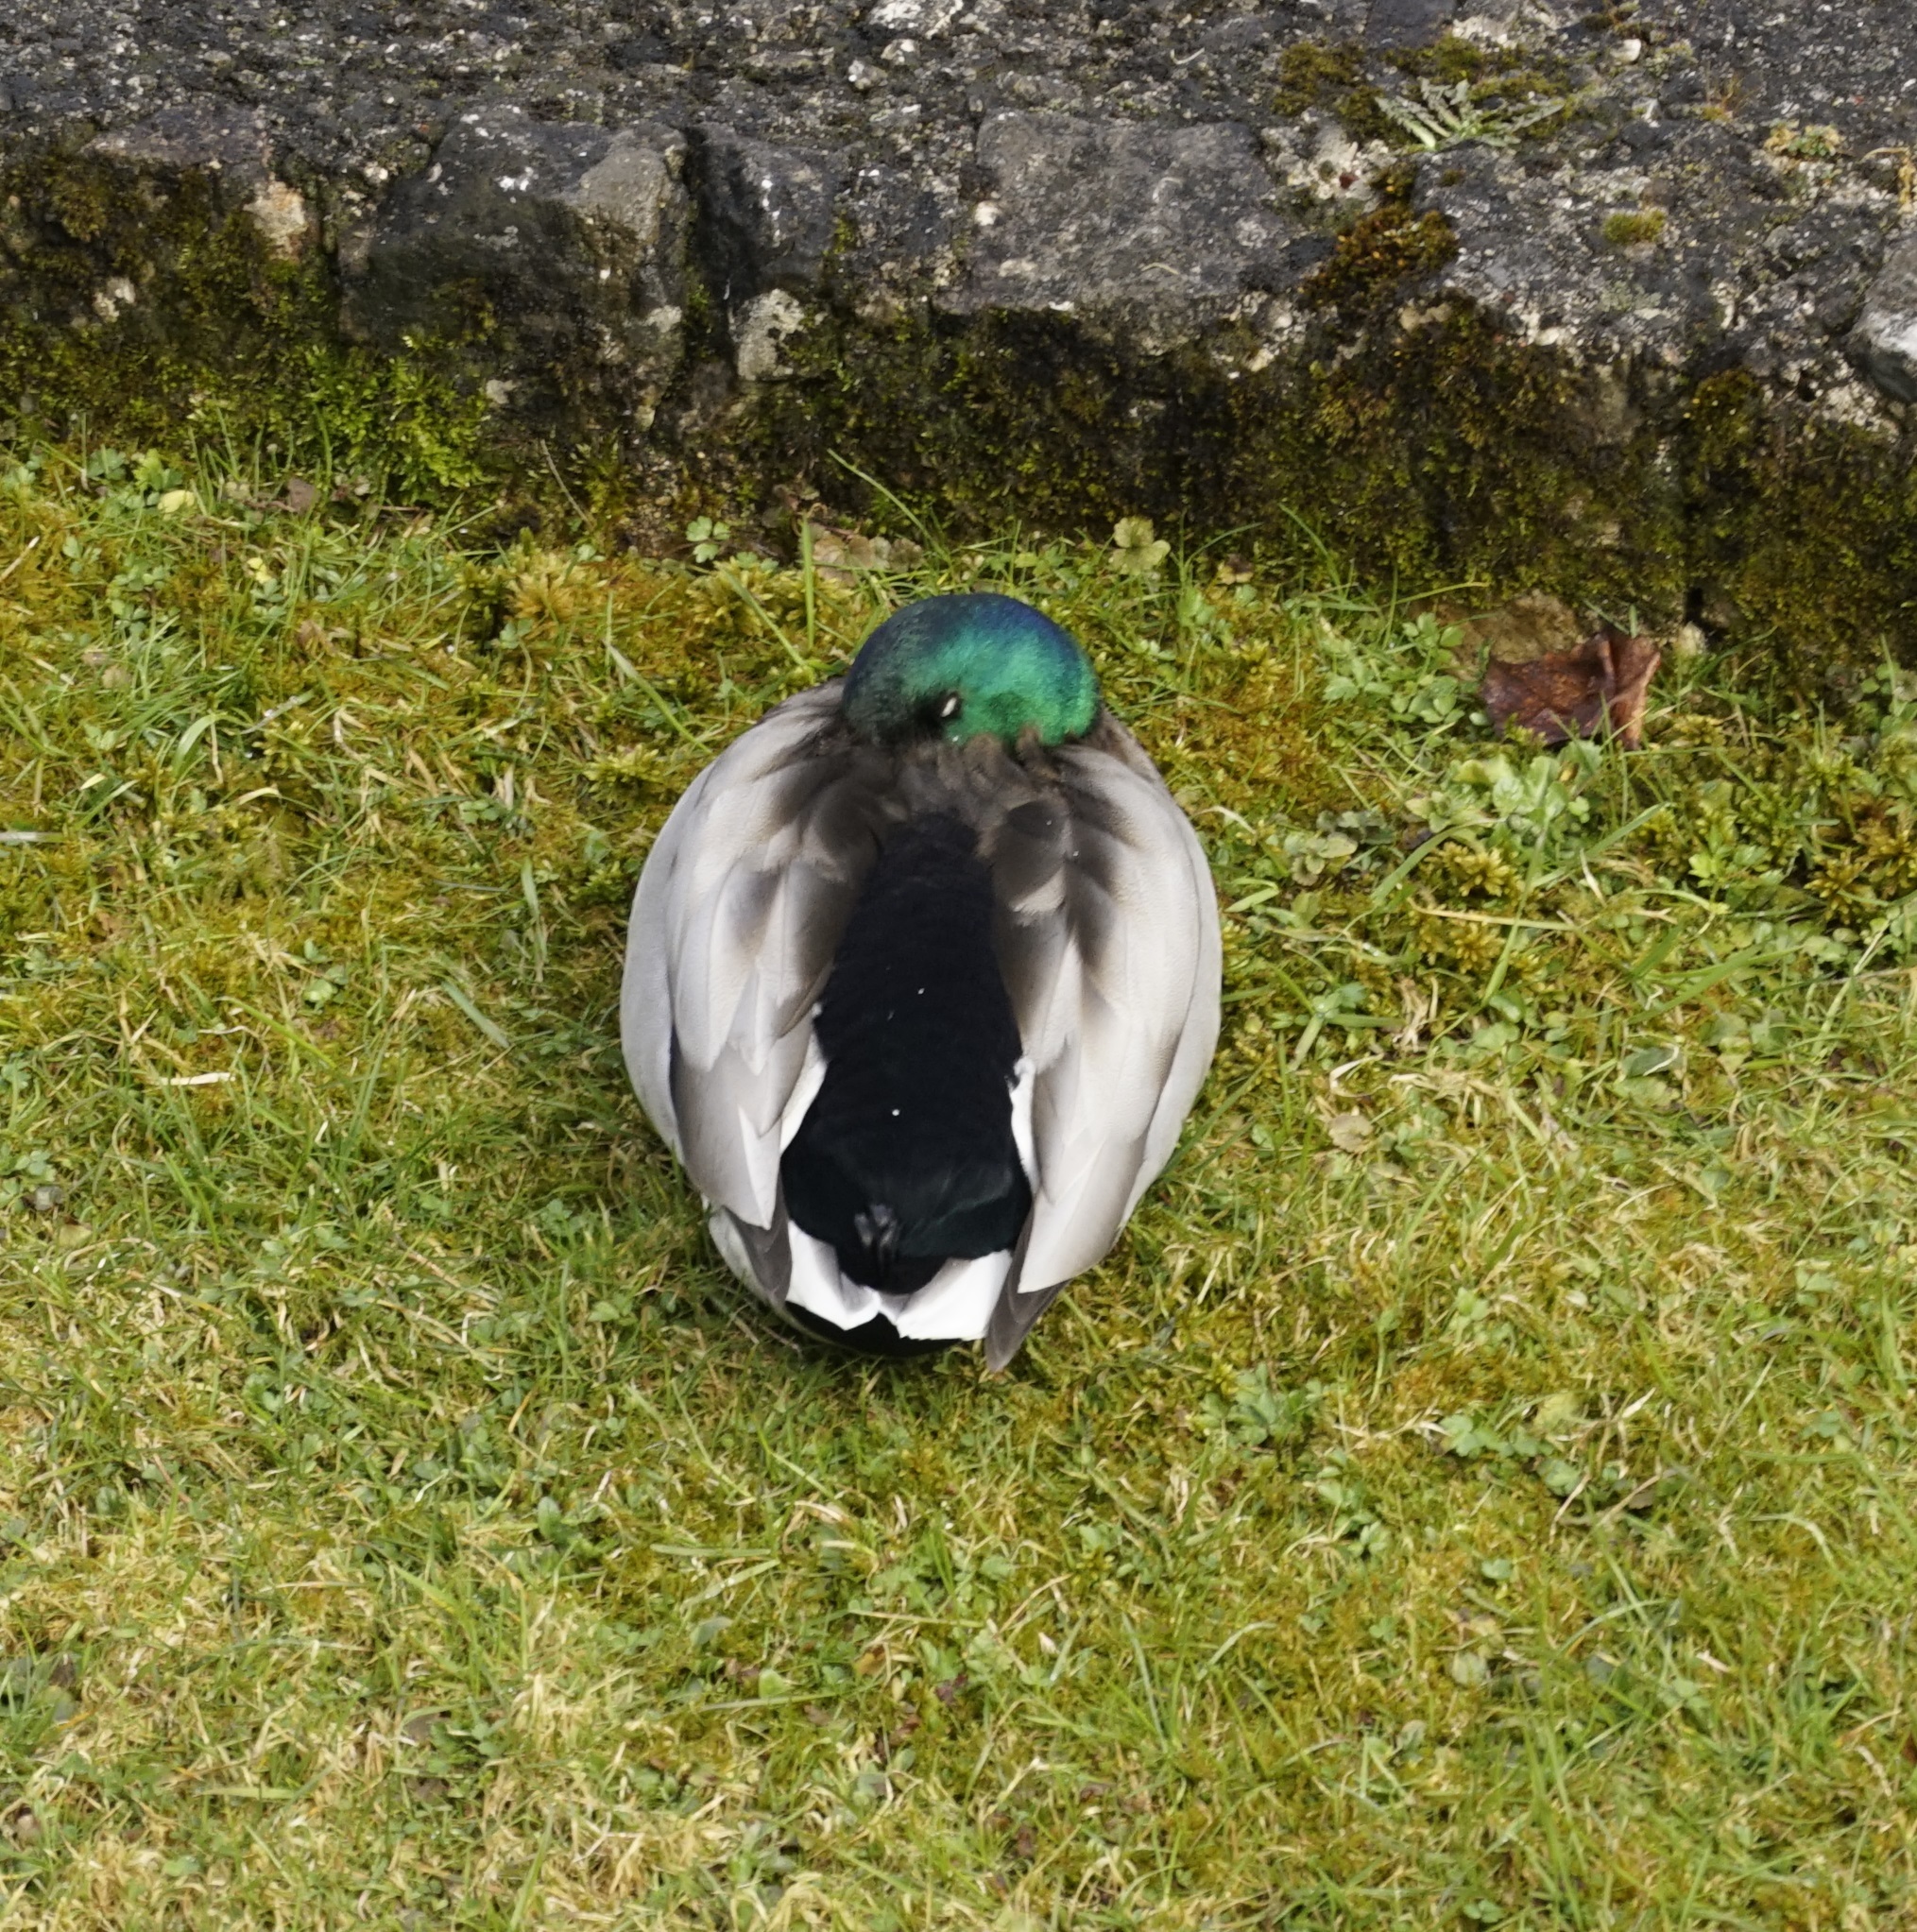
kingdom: Animalia
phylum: Chordata
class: Aves
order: Anseriformes
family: Anatidae
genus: Anas
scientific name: Anas platyrhynchos
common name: Mallard
